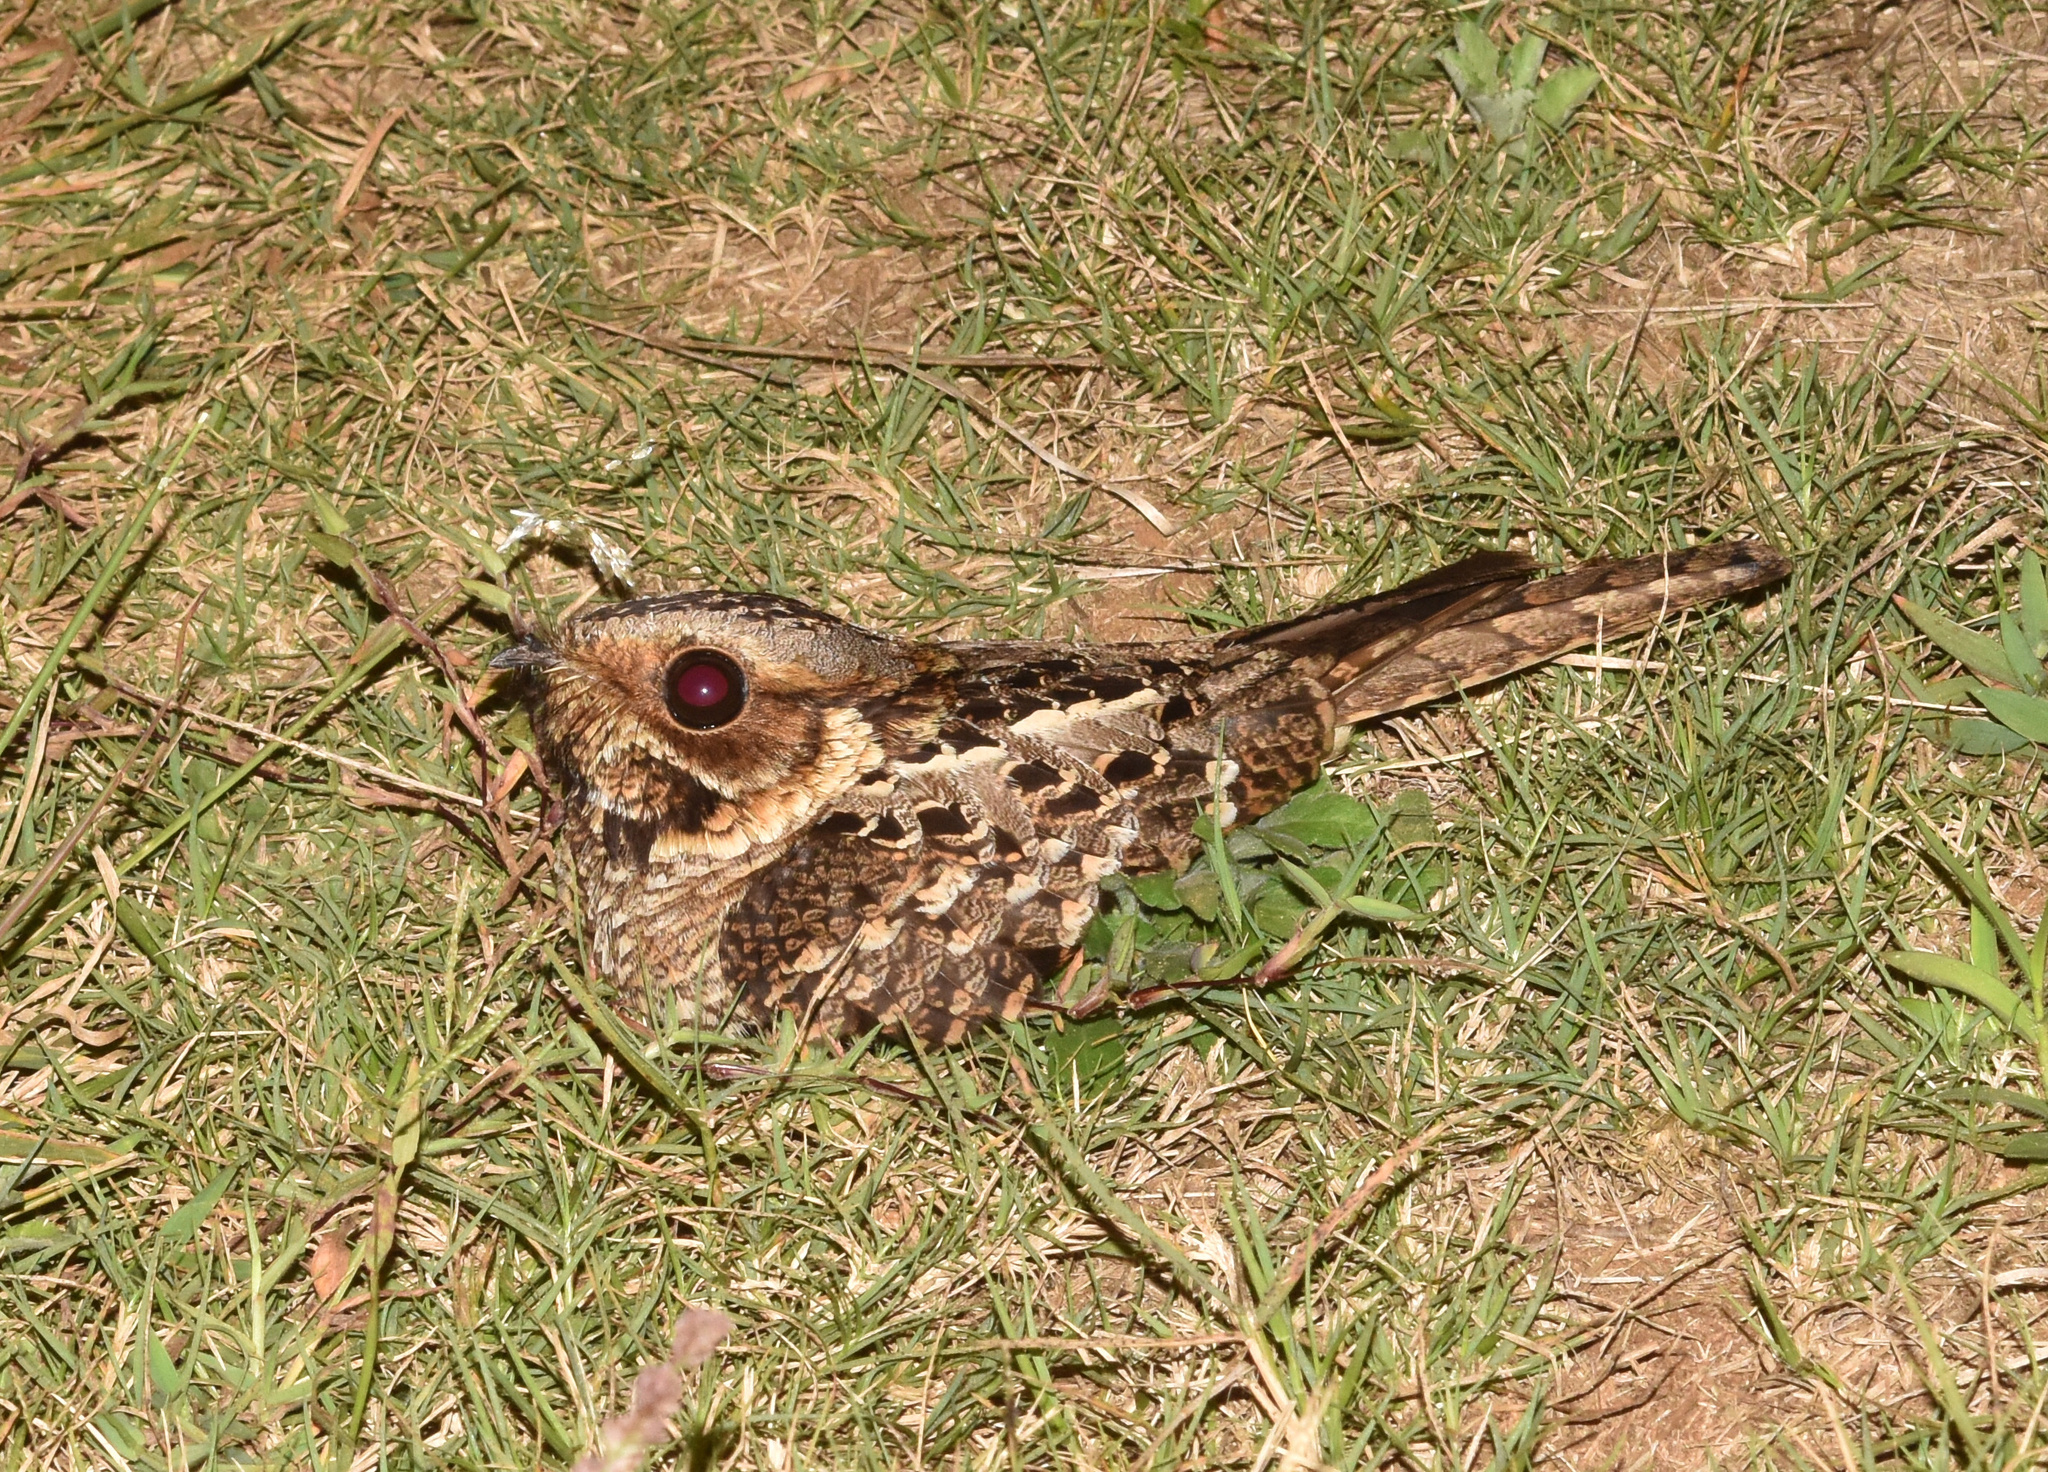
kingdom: Animalia
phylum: Chordata
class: Aves
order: Caprimulgiformes
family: Caprimulgidae
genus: Caprimulgus
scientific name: Caprimulgus pectoralis
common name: Fiery-necked nightjar
